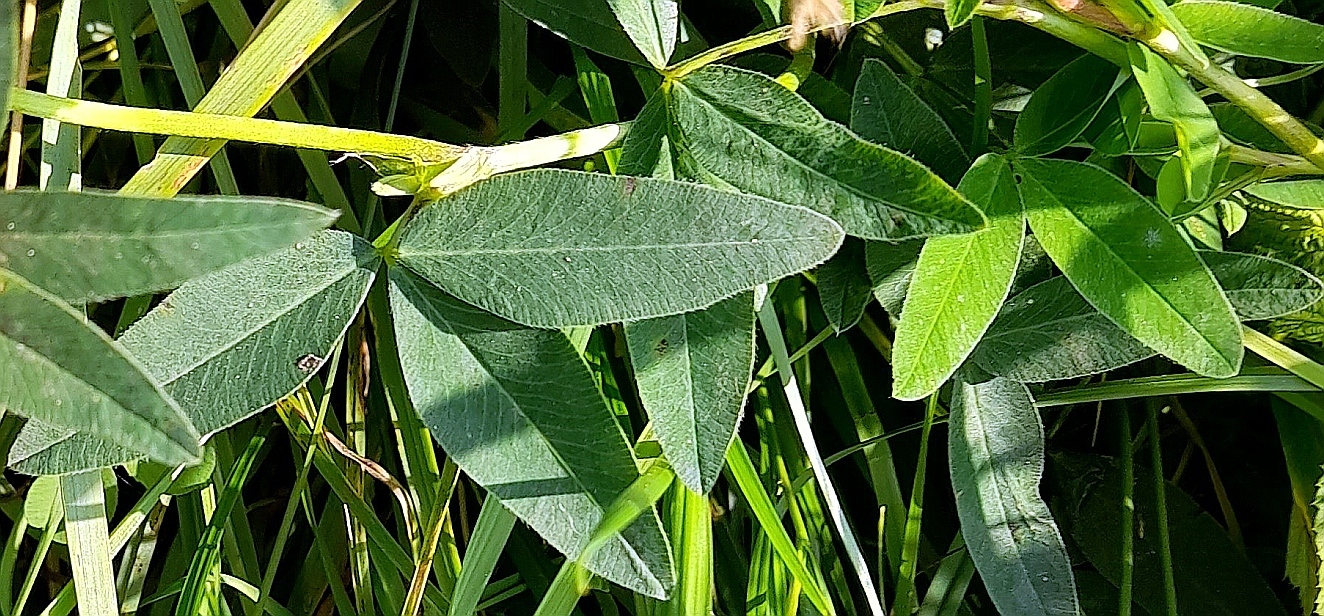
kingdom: Plantae
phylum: Tracheophyta
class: Magnoliopsida
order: Fabales
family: Fabaceae
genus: Trifolium
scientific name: Trifolium medium
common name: Zigzag clover
